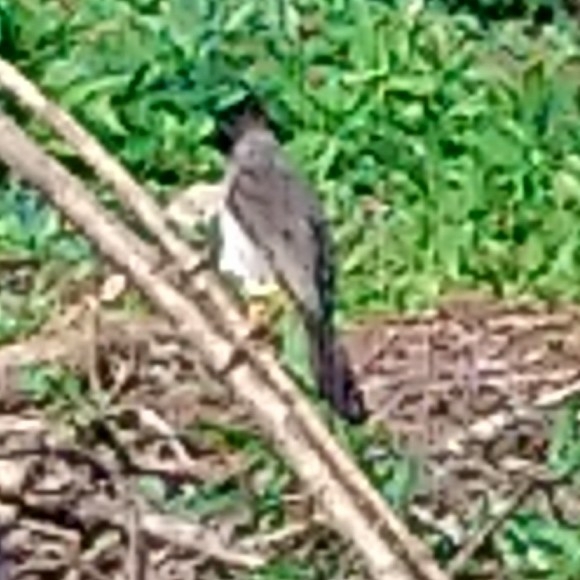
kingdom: Animalia
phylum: Chordata
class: Aves
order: Passeriformes
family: Pycnonotidae
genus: Pycnonotus
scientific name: Pycnonotus barbatus
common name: Common bulbul
